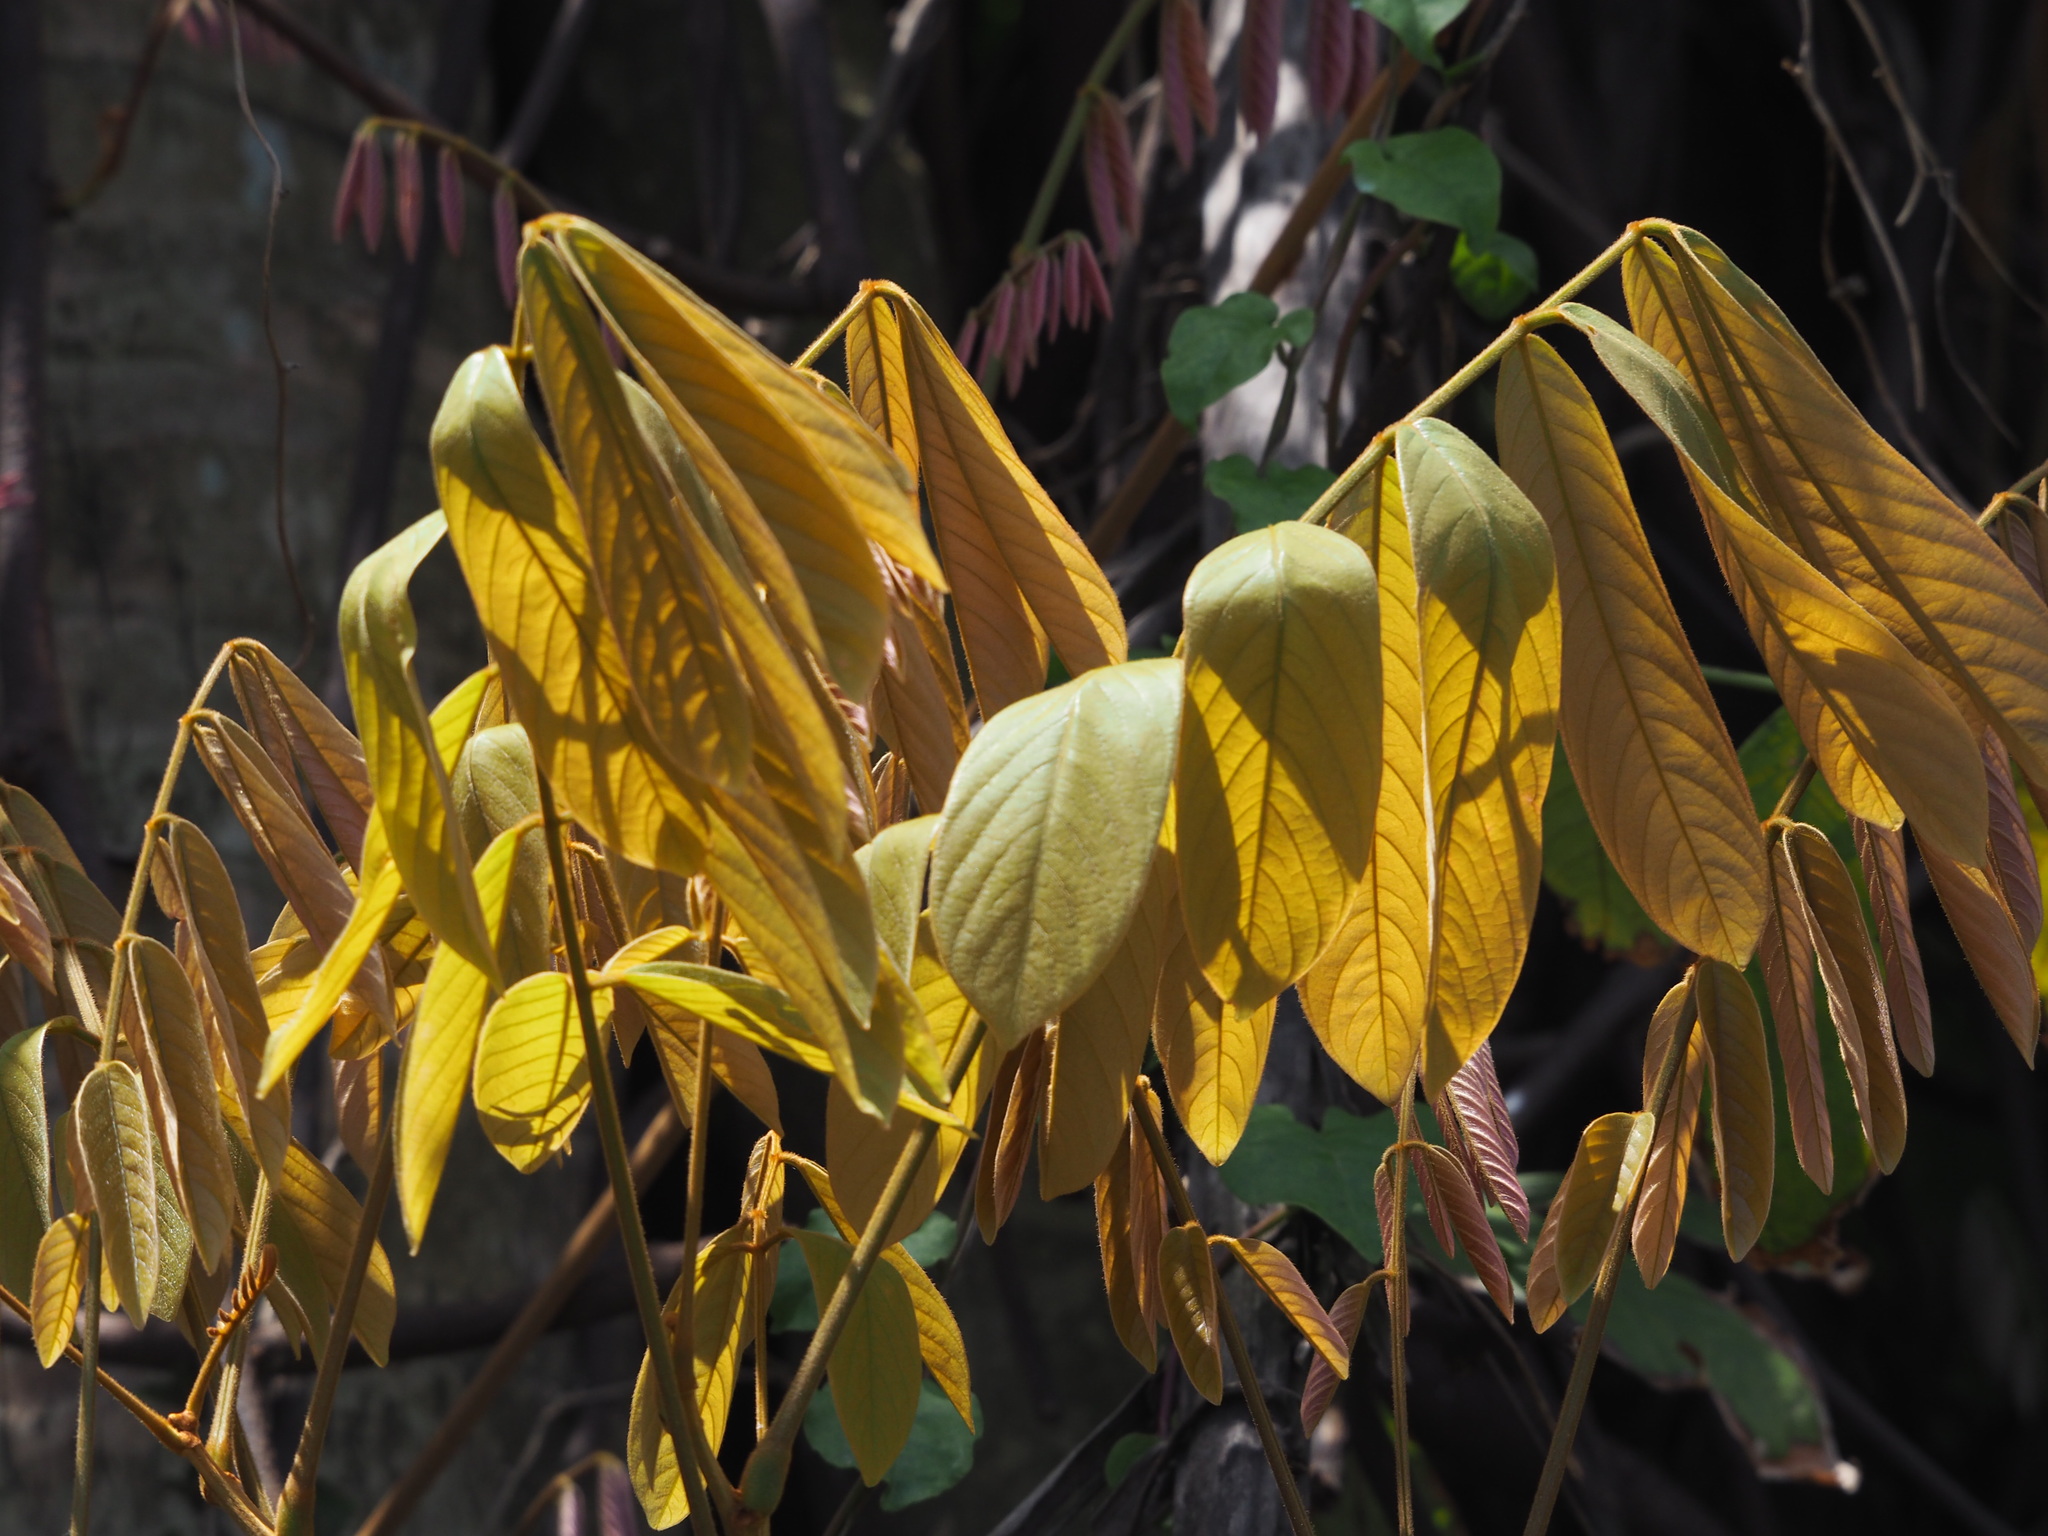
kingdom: Plantae
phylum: Tracheophyta
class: Magnoliopsida
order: Fabales
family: Fabaceae
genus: Derris
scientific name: Derris elliptica
